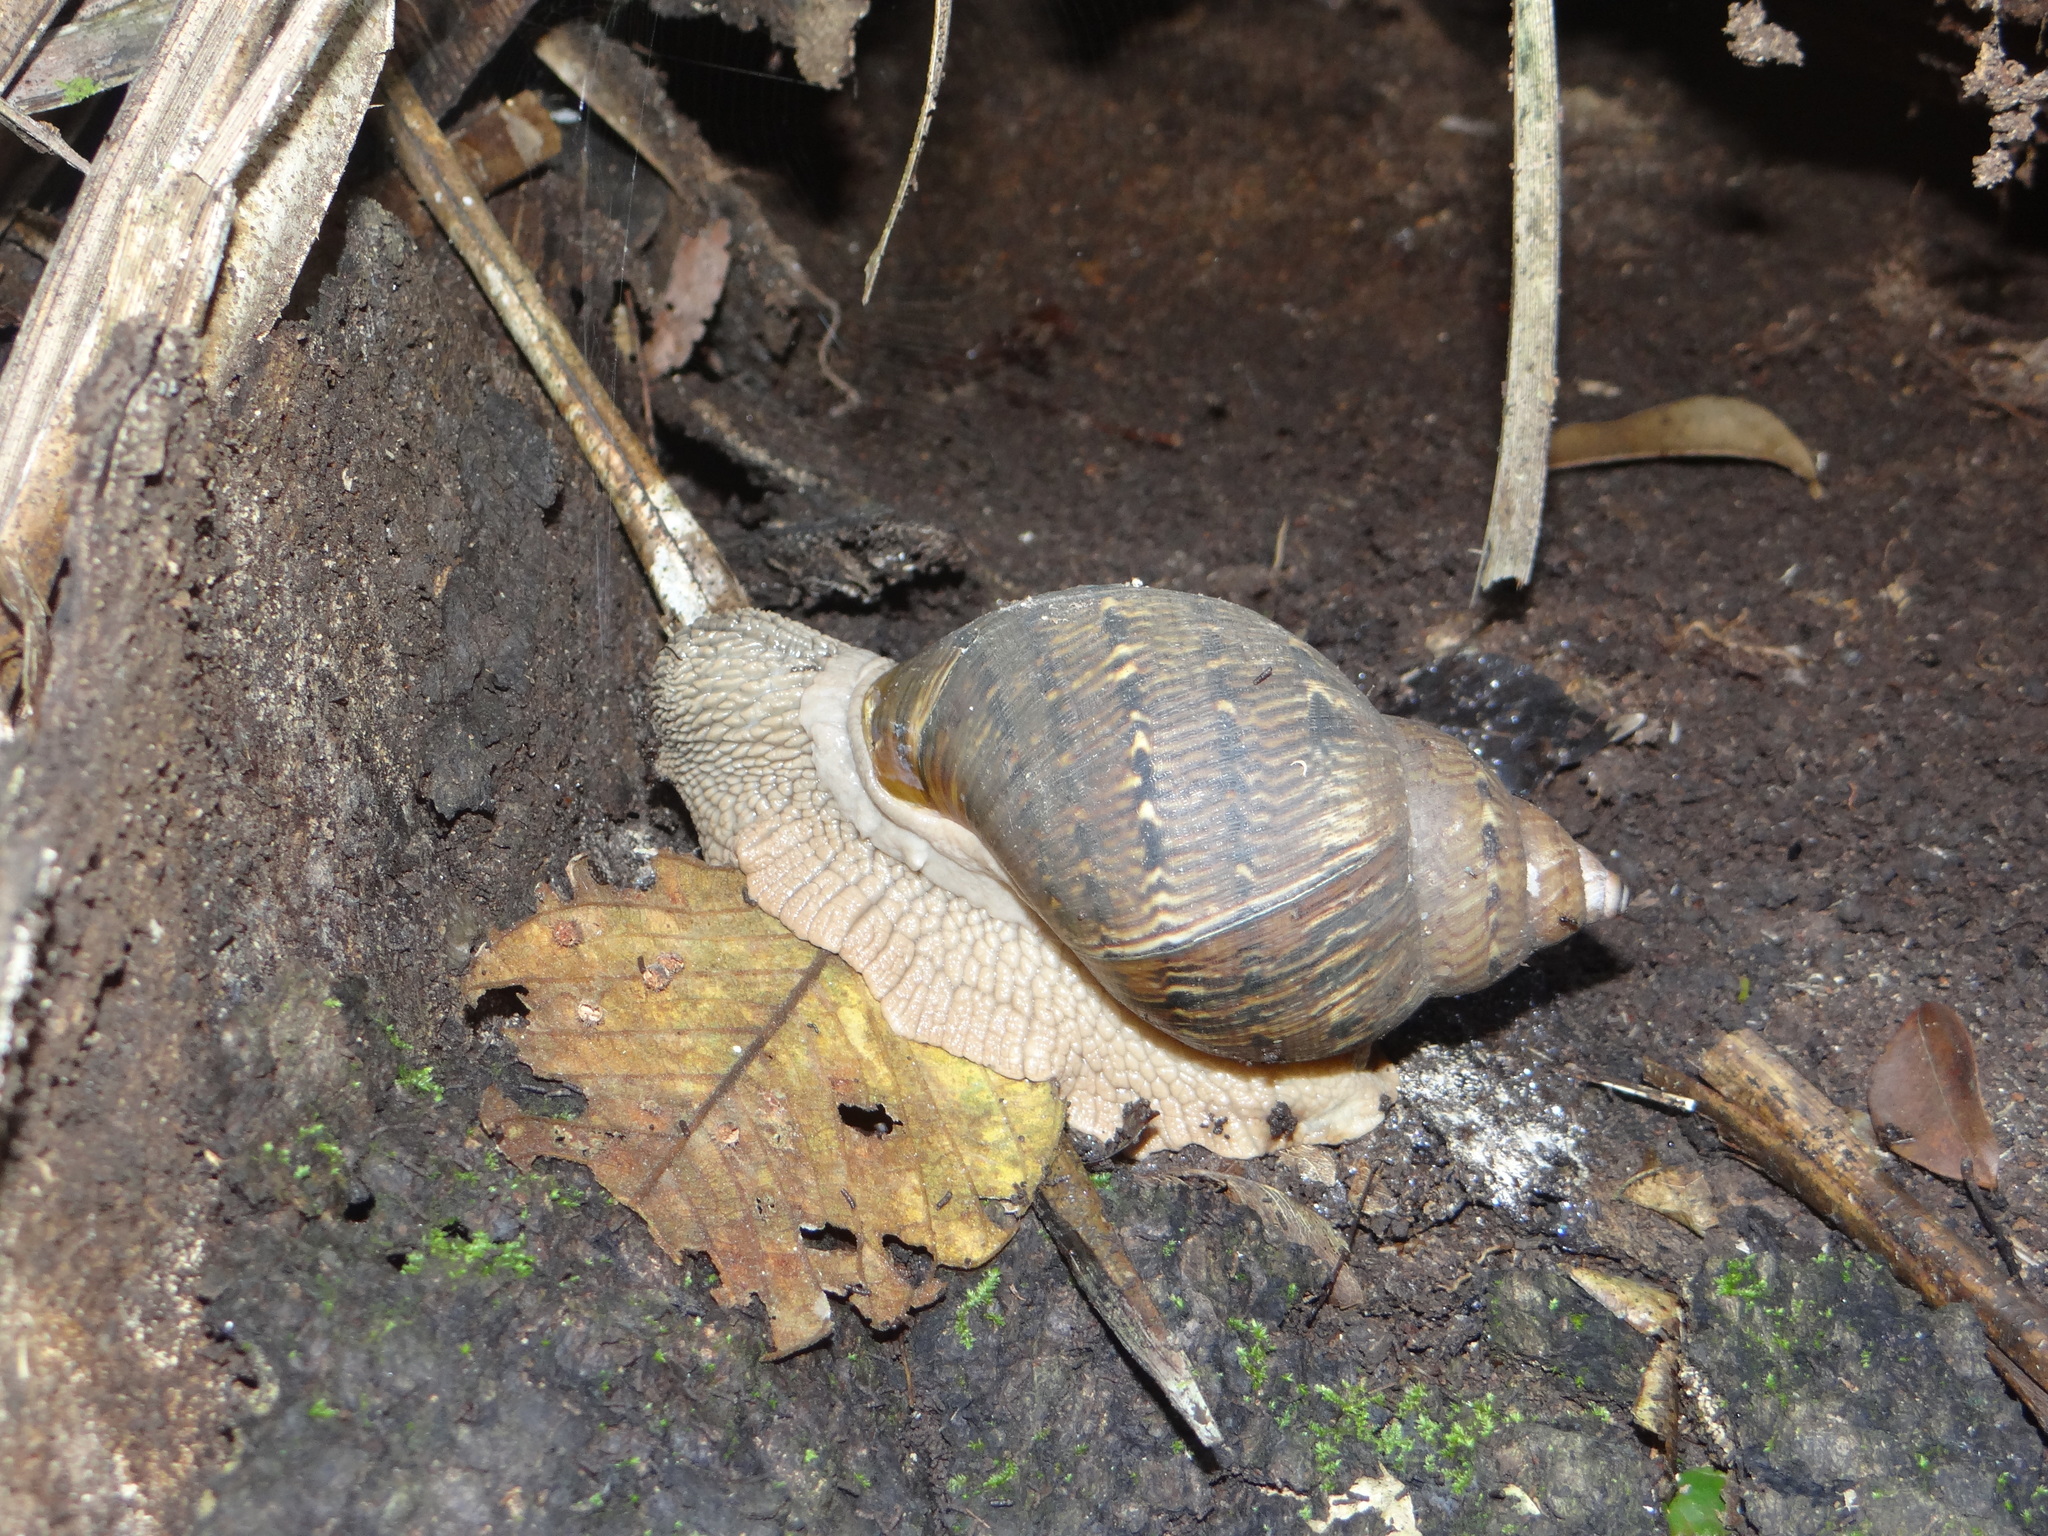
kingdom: Animalia
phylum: Mollusca
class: Gastropoda
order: Stylommatophora
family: Orthalicidae
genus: Sultana
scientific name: Sultana sultana
